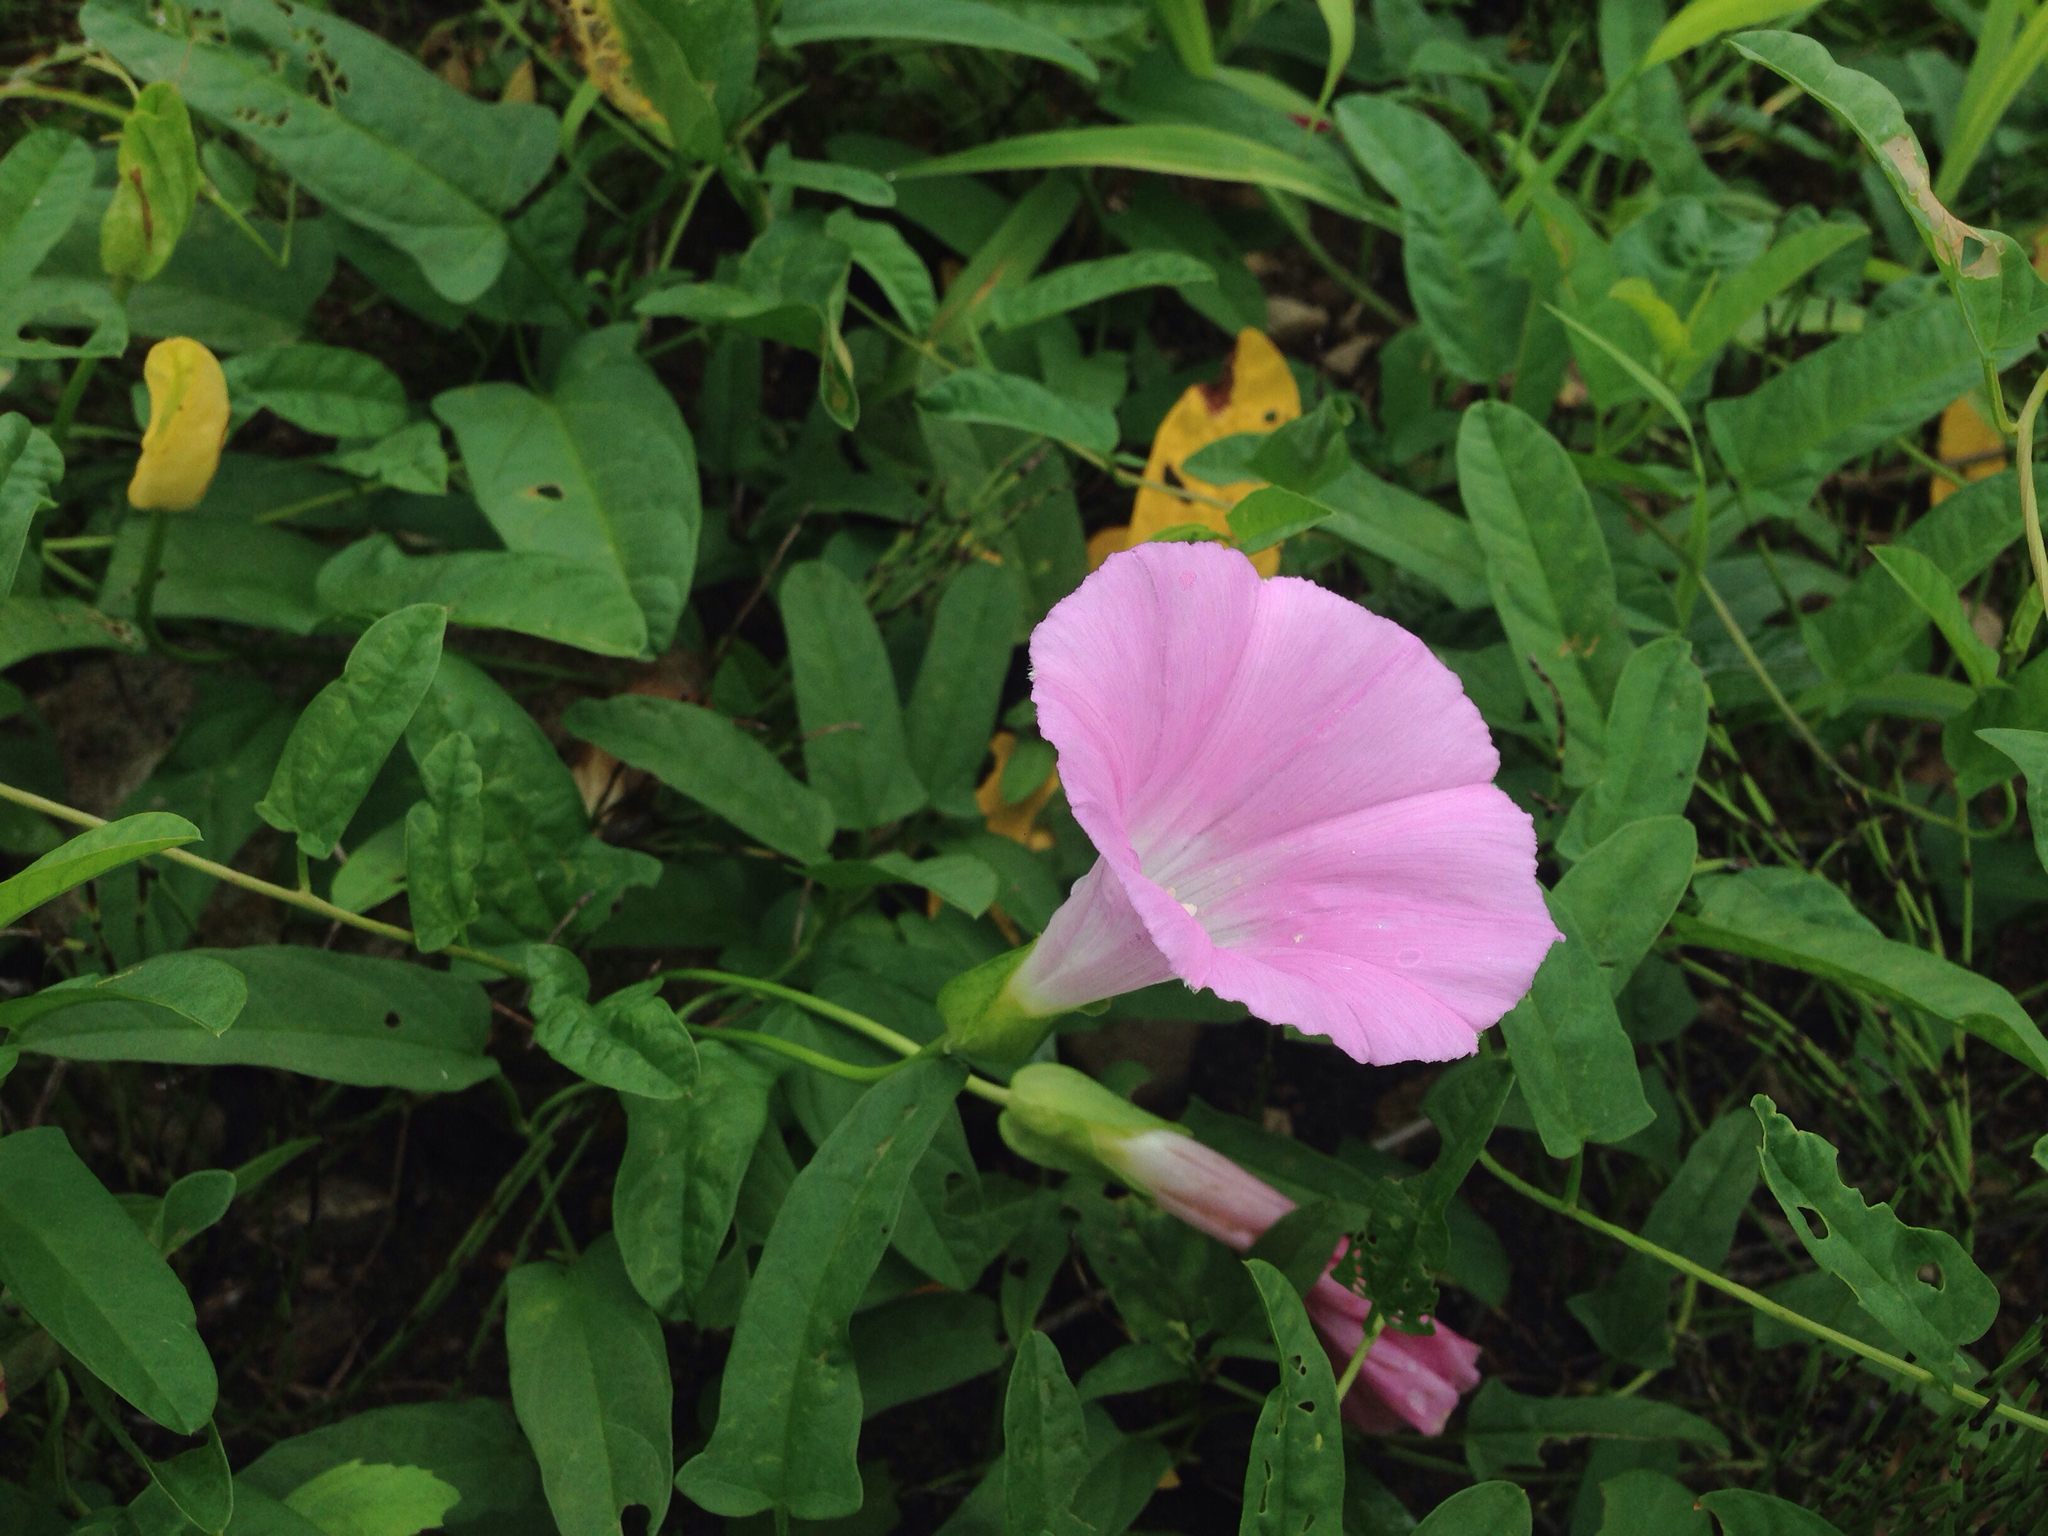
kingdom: Plantae
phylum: Tracheophyta
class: Magnoliopsida
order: Solanales
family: Convolvulaceae
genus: Calystegia
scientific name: Calystegia pubescens
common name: Japanese bindweed
